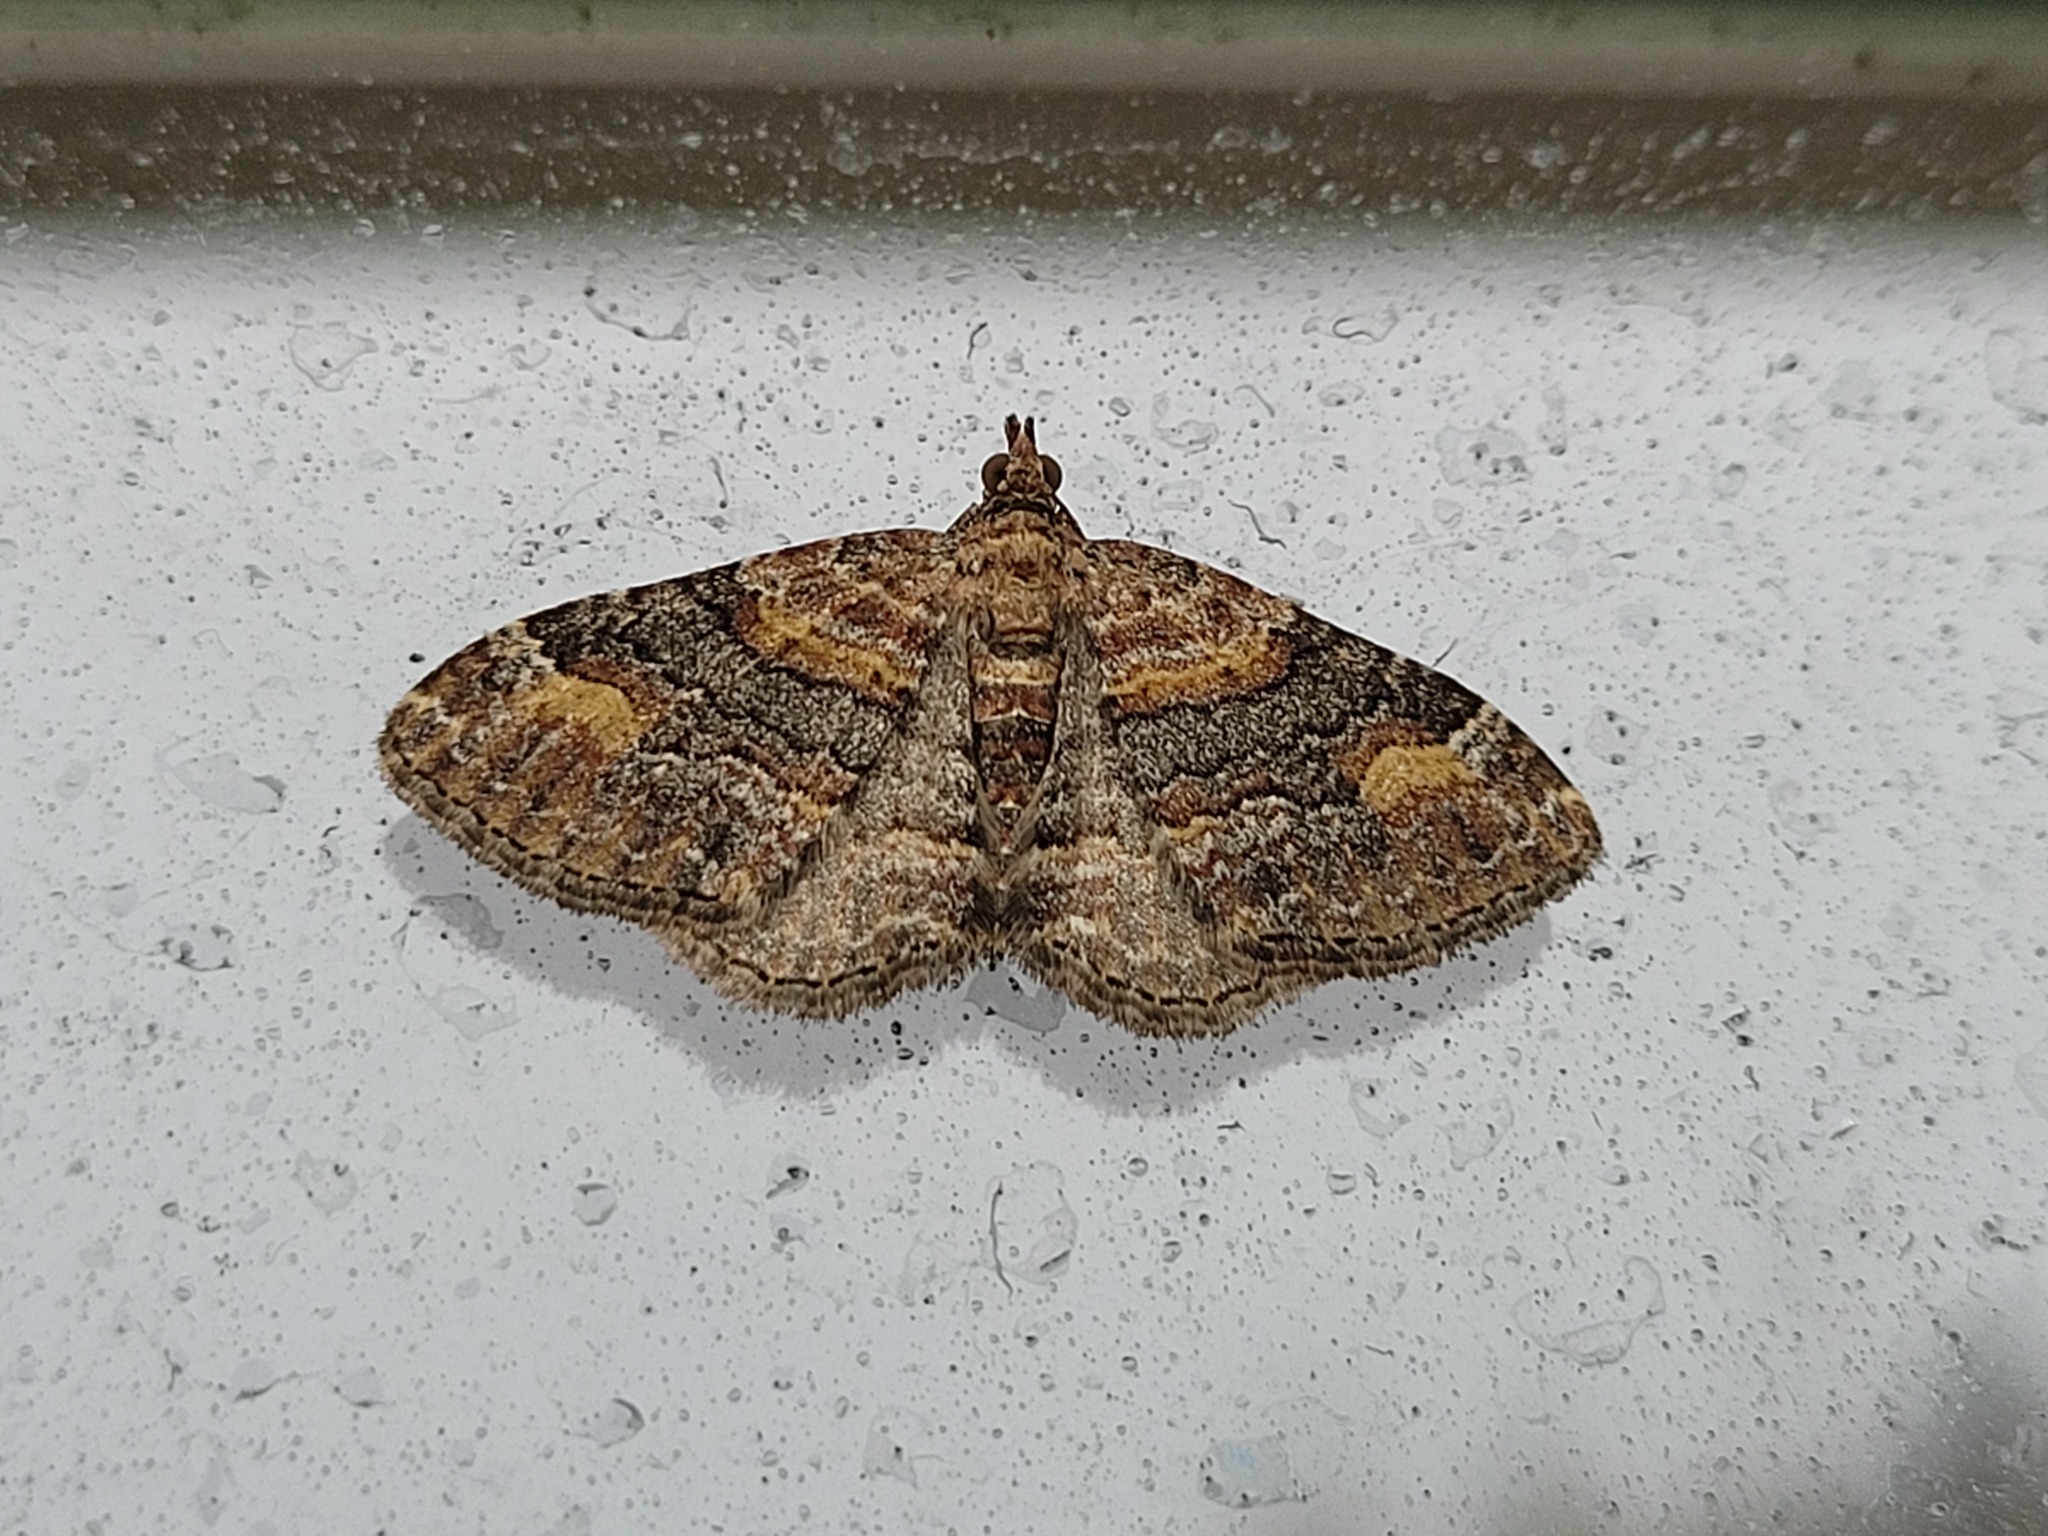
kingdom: Animalia
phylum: Arthropoda
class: Insecta
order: Lepidoptera
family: Geometridae
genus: Epyaxa
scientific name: Epyaxa lucidata
